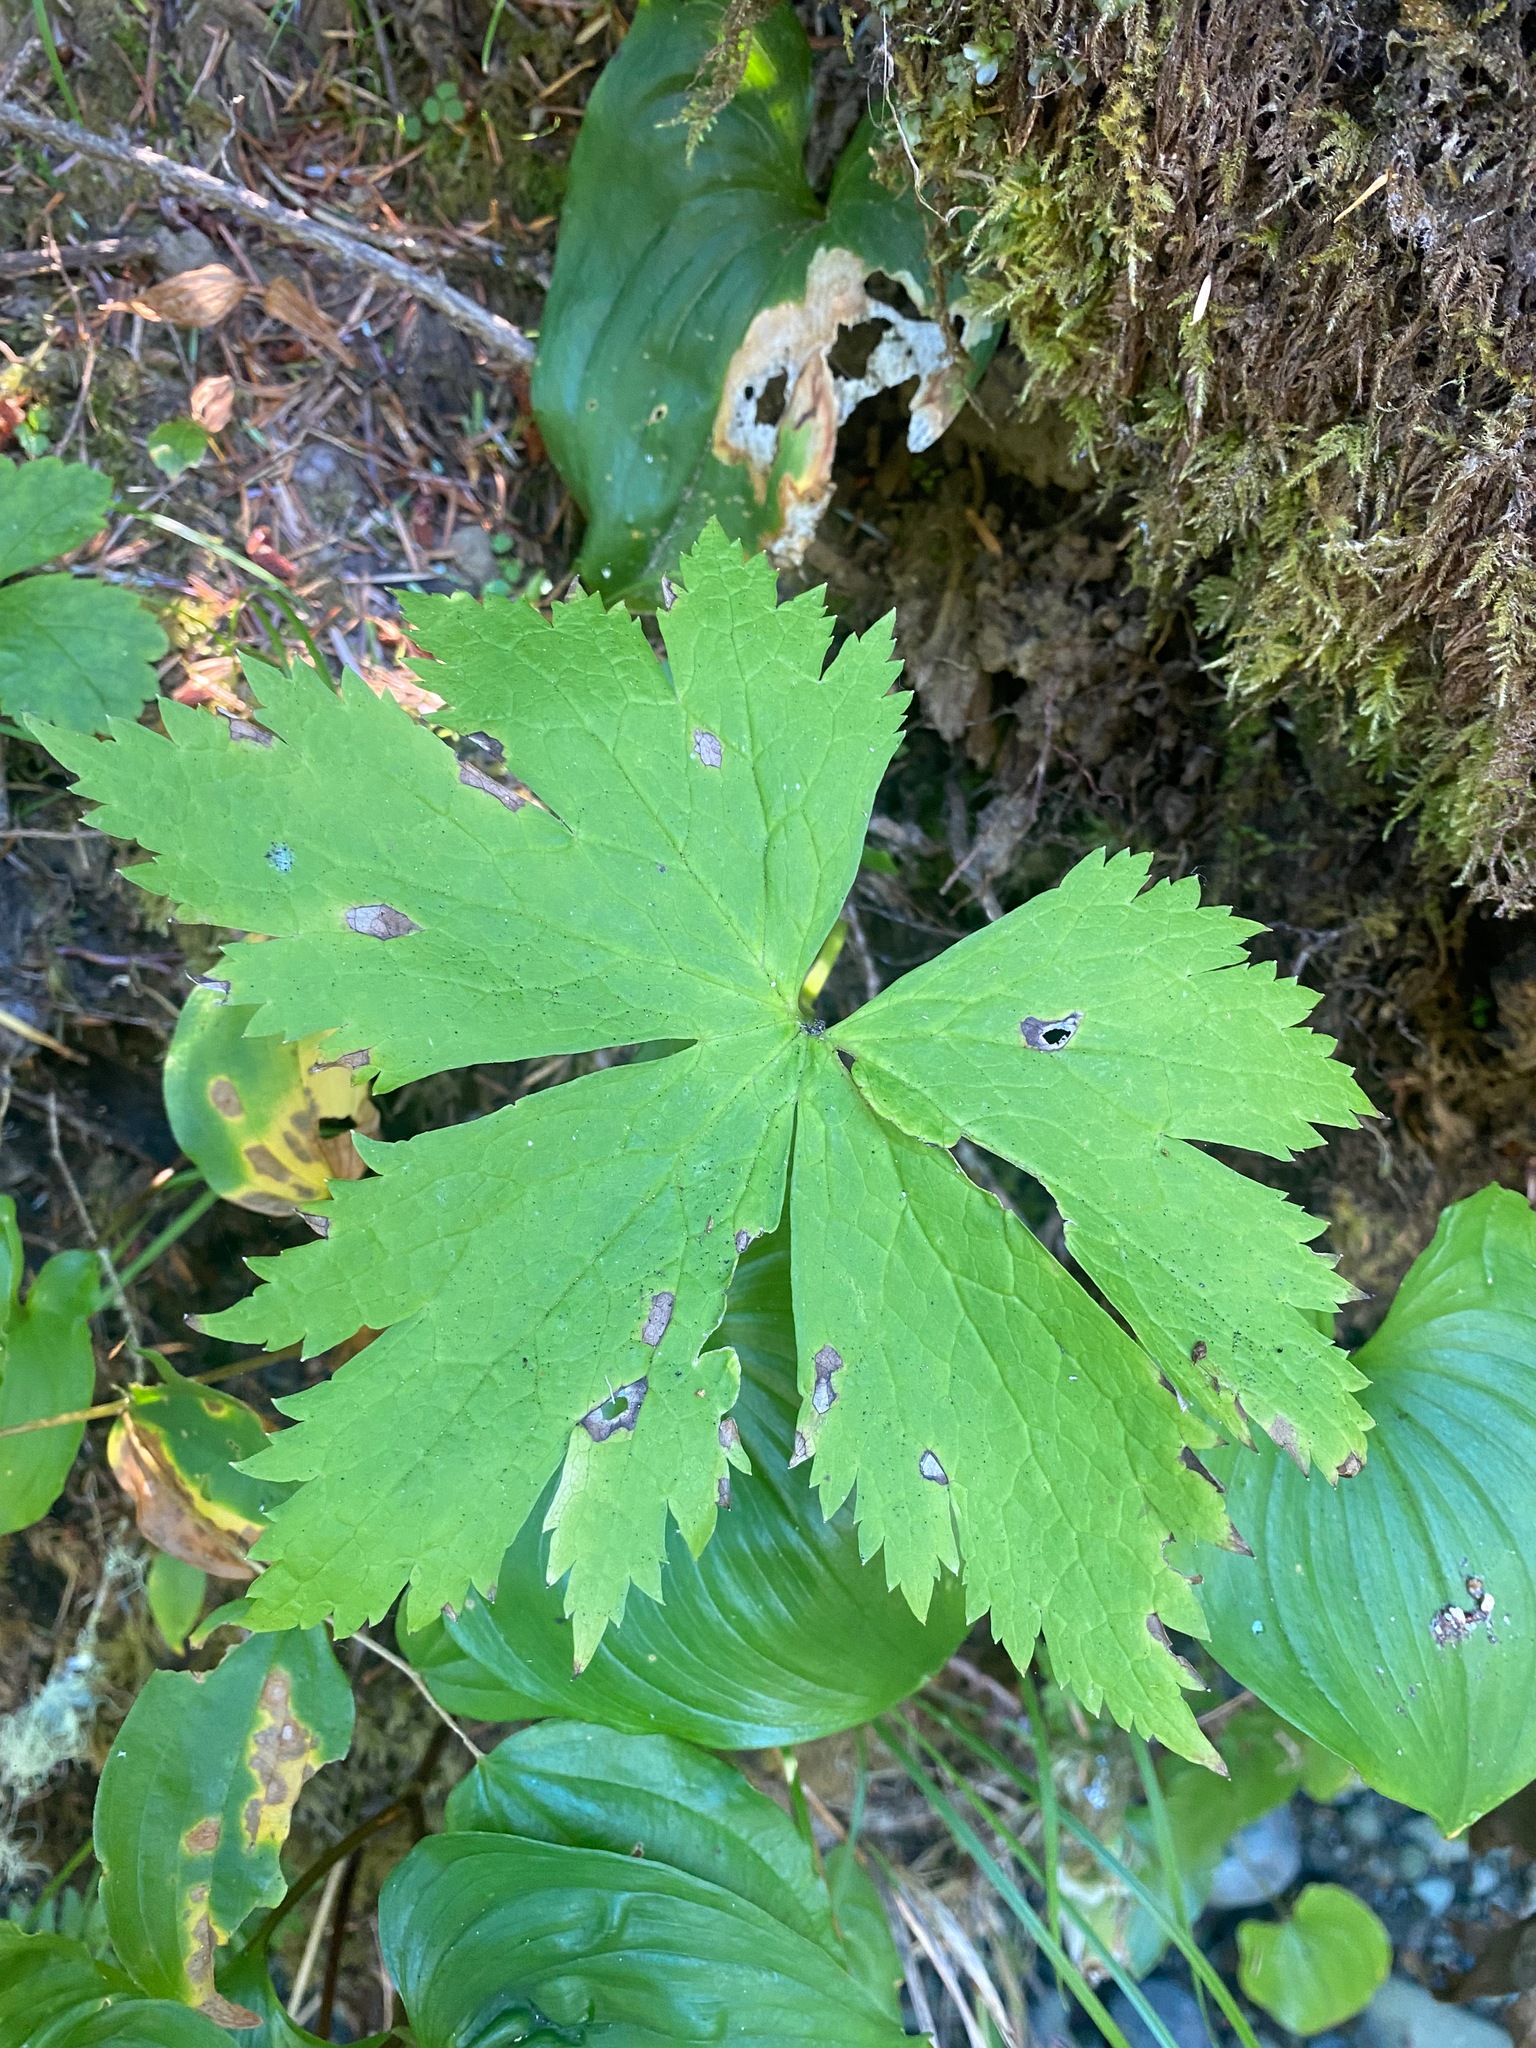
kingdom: Plantae
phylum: Tracheophyta
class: Magnoliopsida
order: Ranunculales
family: Ranunculaceae
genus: Trautvetteria
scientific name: Trautvetteria carolinensis
